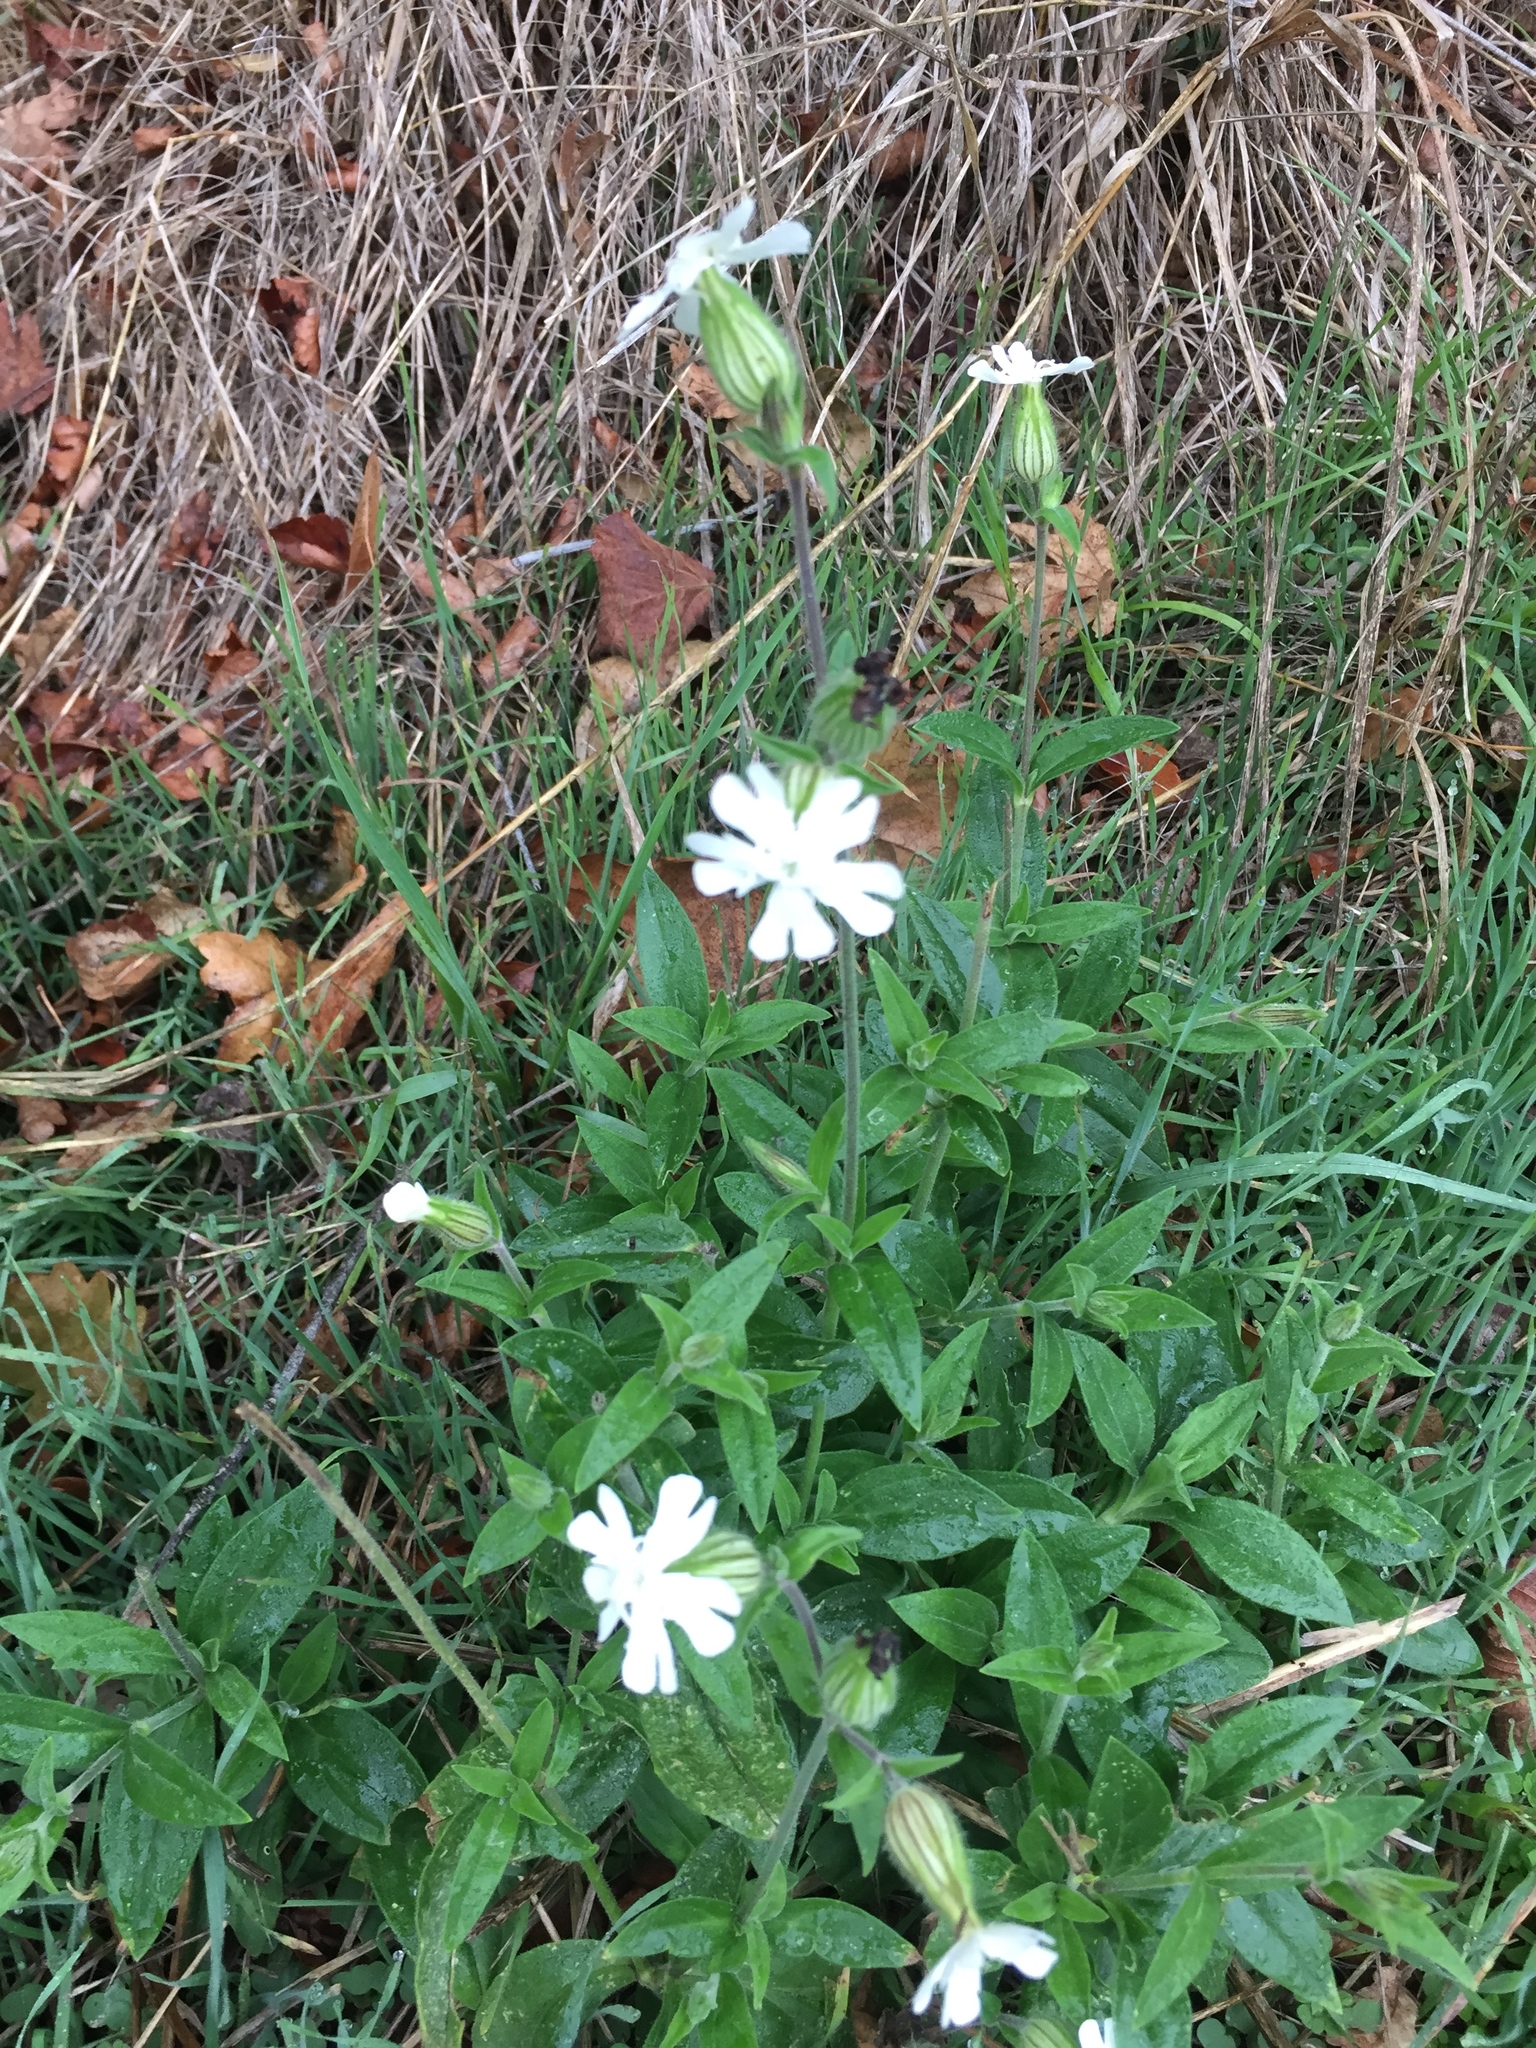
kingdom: Plantae
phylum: Tracheophyta
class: Magnoliopsida
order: Caryophyllales
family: Caryophyllaceae
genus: Silene
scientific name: Silene latifolia
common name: White campion
